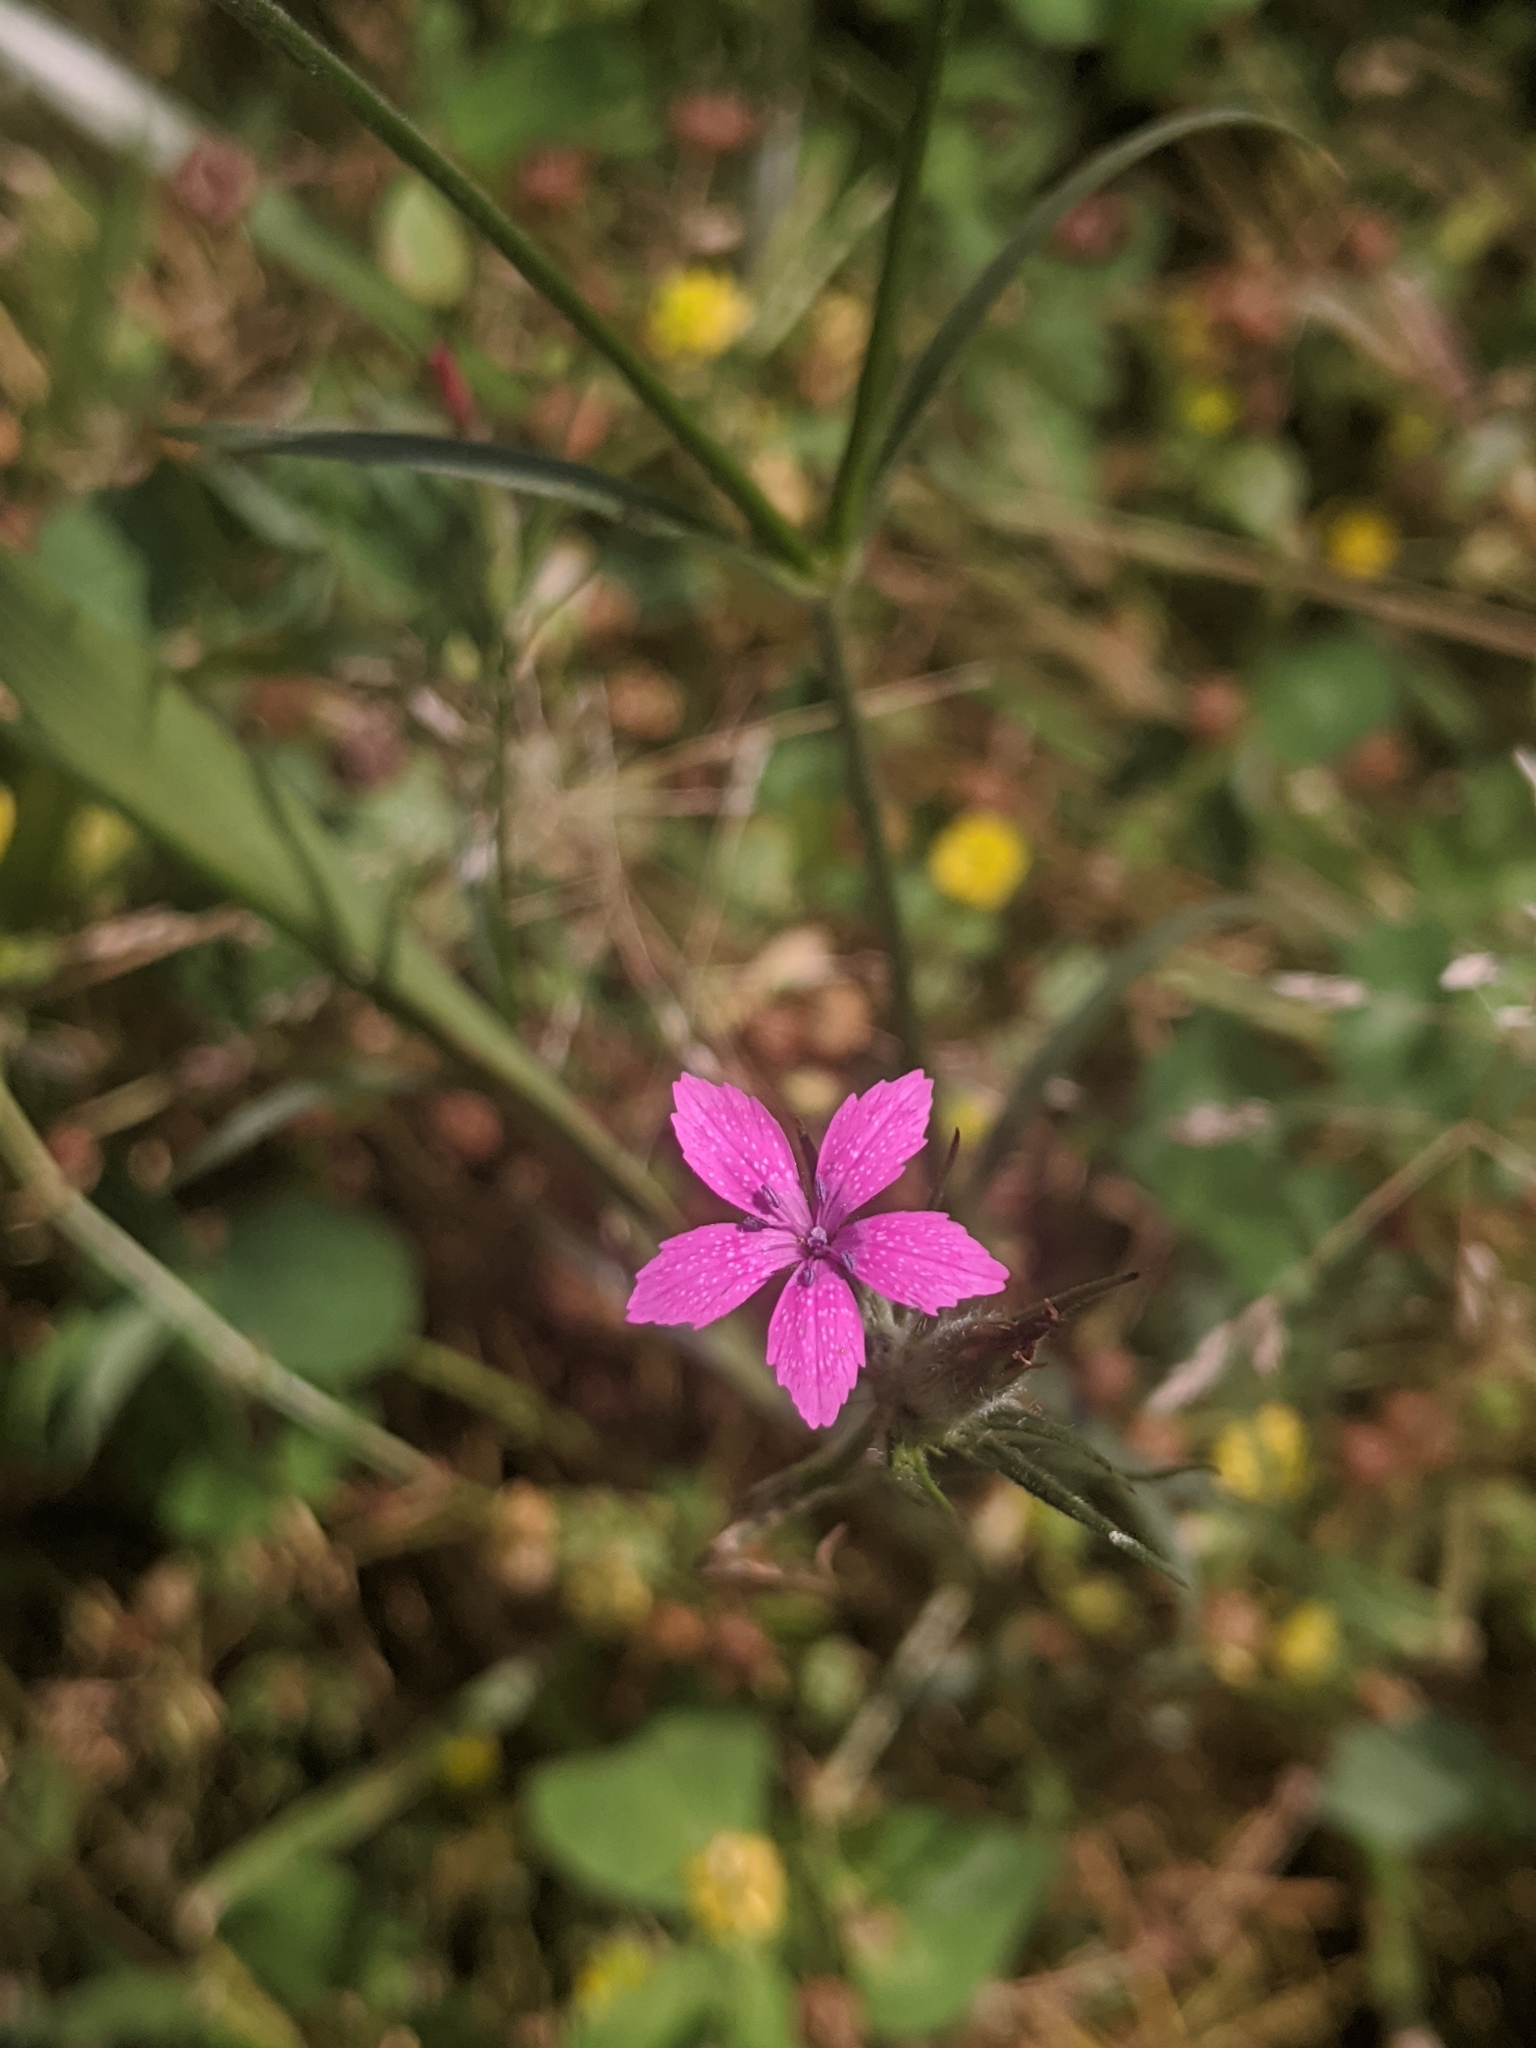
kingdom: Plantae
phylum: Tracheophyta
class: Magnoliopsida
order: Caryophyllales
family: Caryophyllaceae
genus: Dianthus
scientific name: Dianthus armeria
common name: Deptford pink
